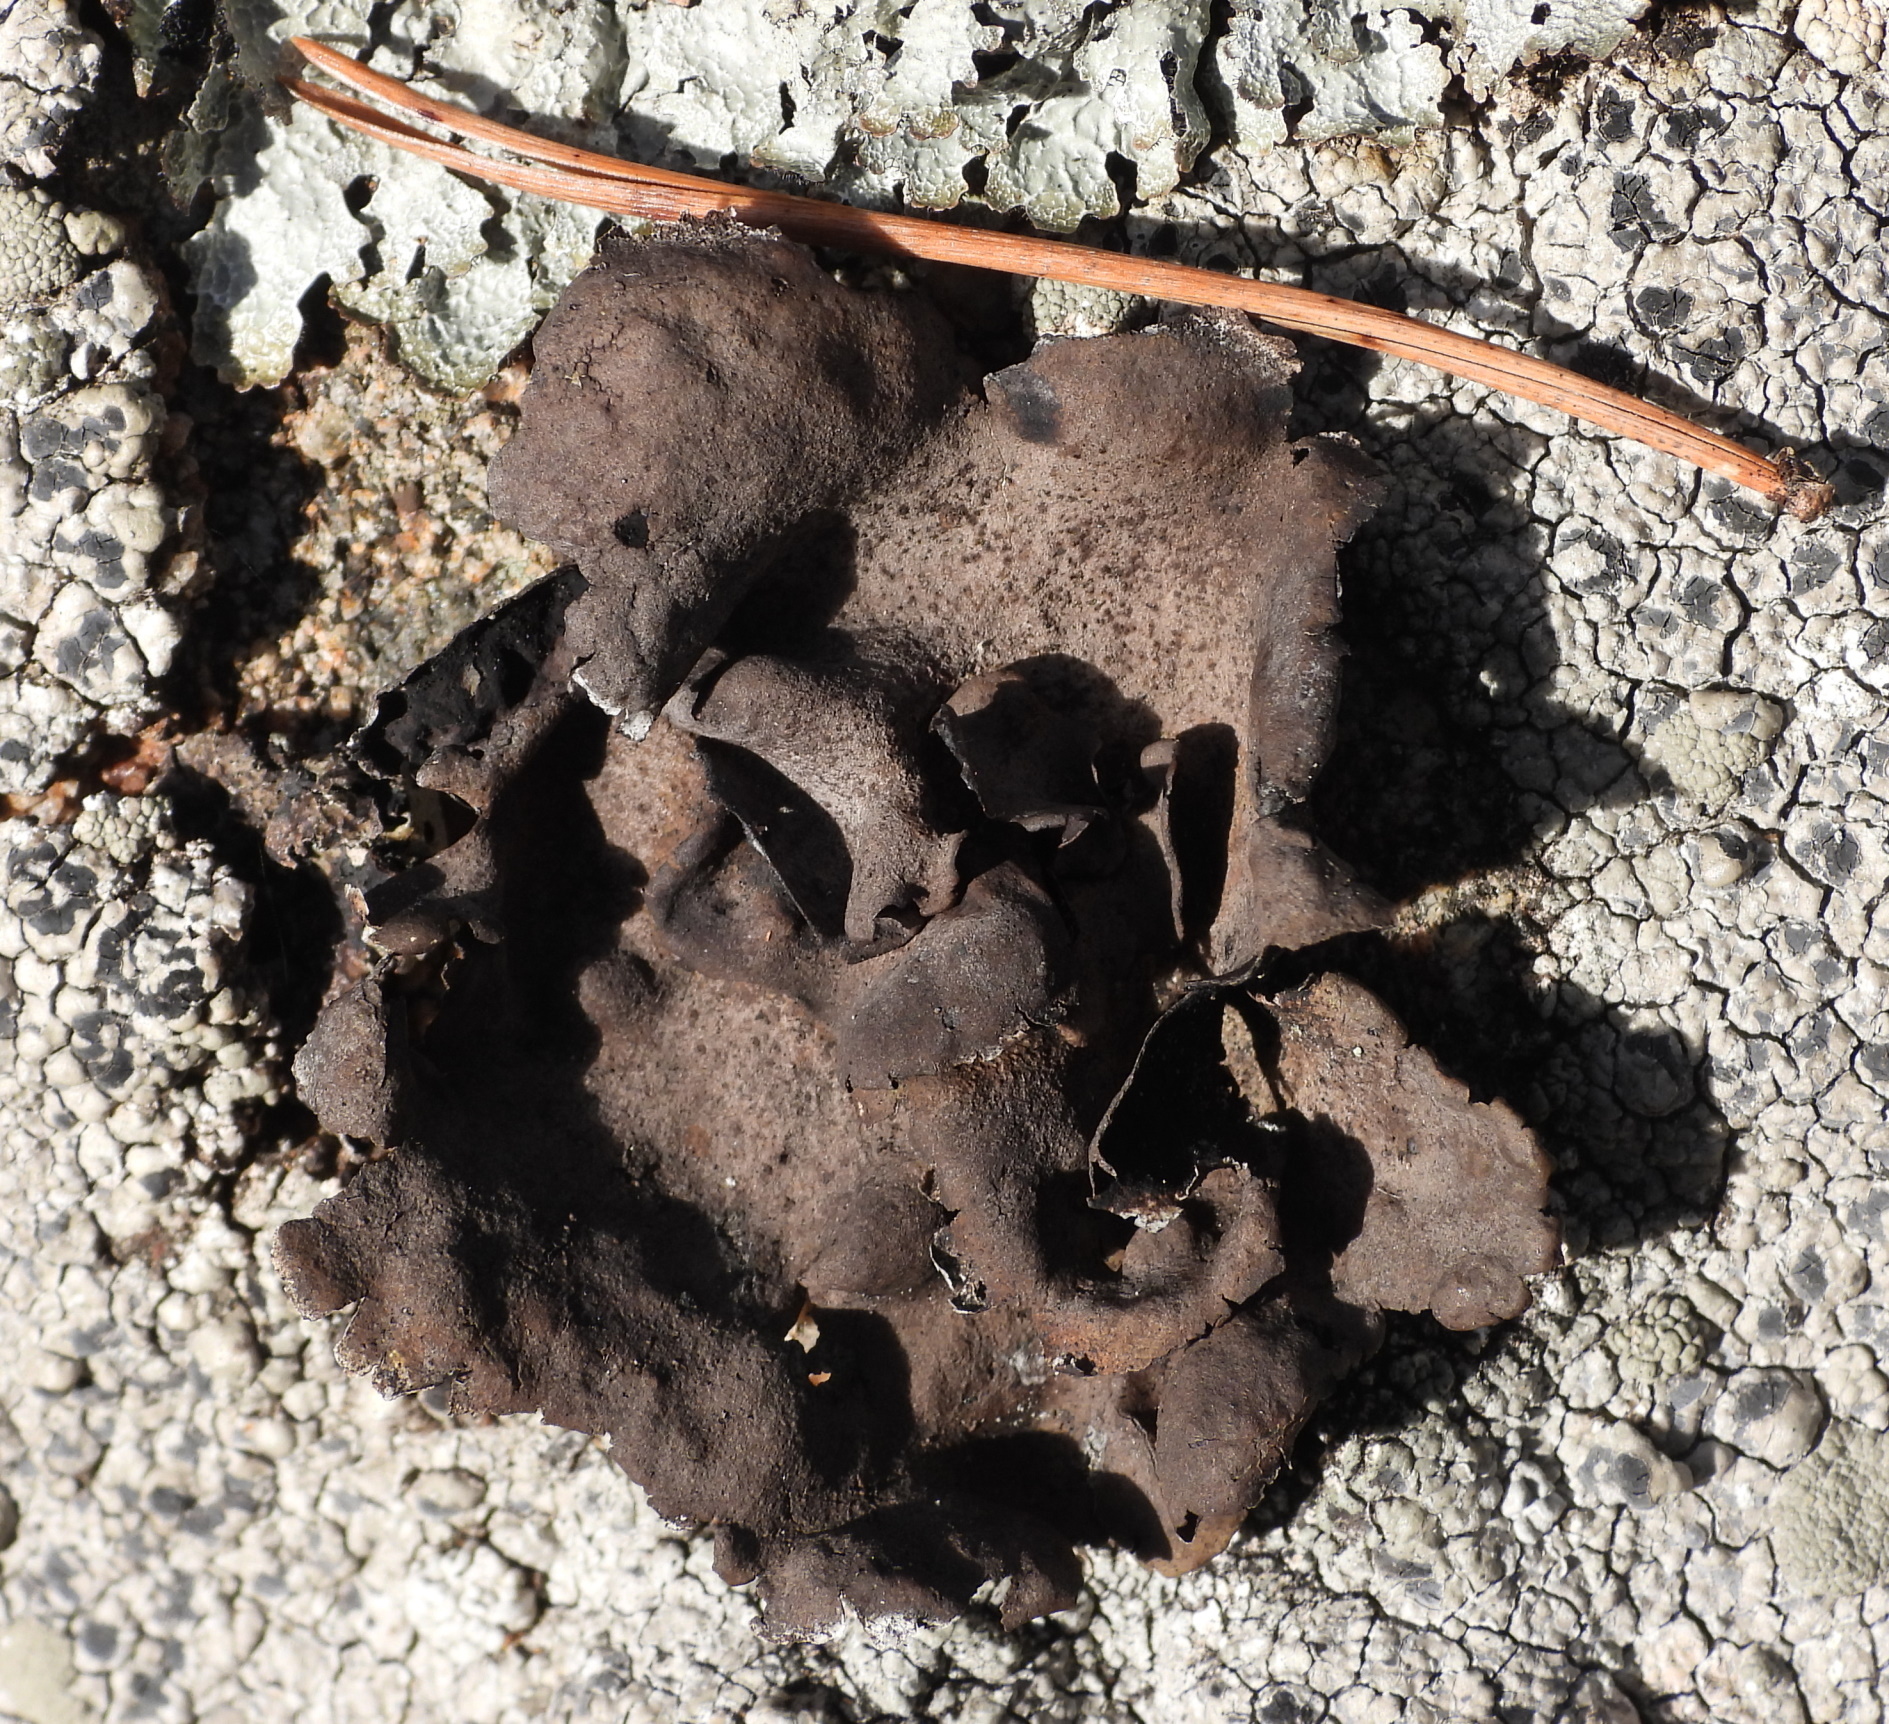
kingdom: Fungi
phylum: Ascomycota
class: Lecanoromycetes
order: Umbilicariales
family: Umbilicariaceae
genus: Umbilicaria
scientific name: Umbilicaria polyphylla
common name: Petalled rocktripe lichen
